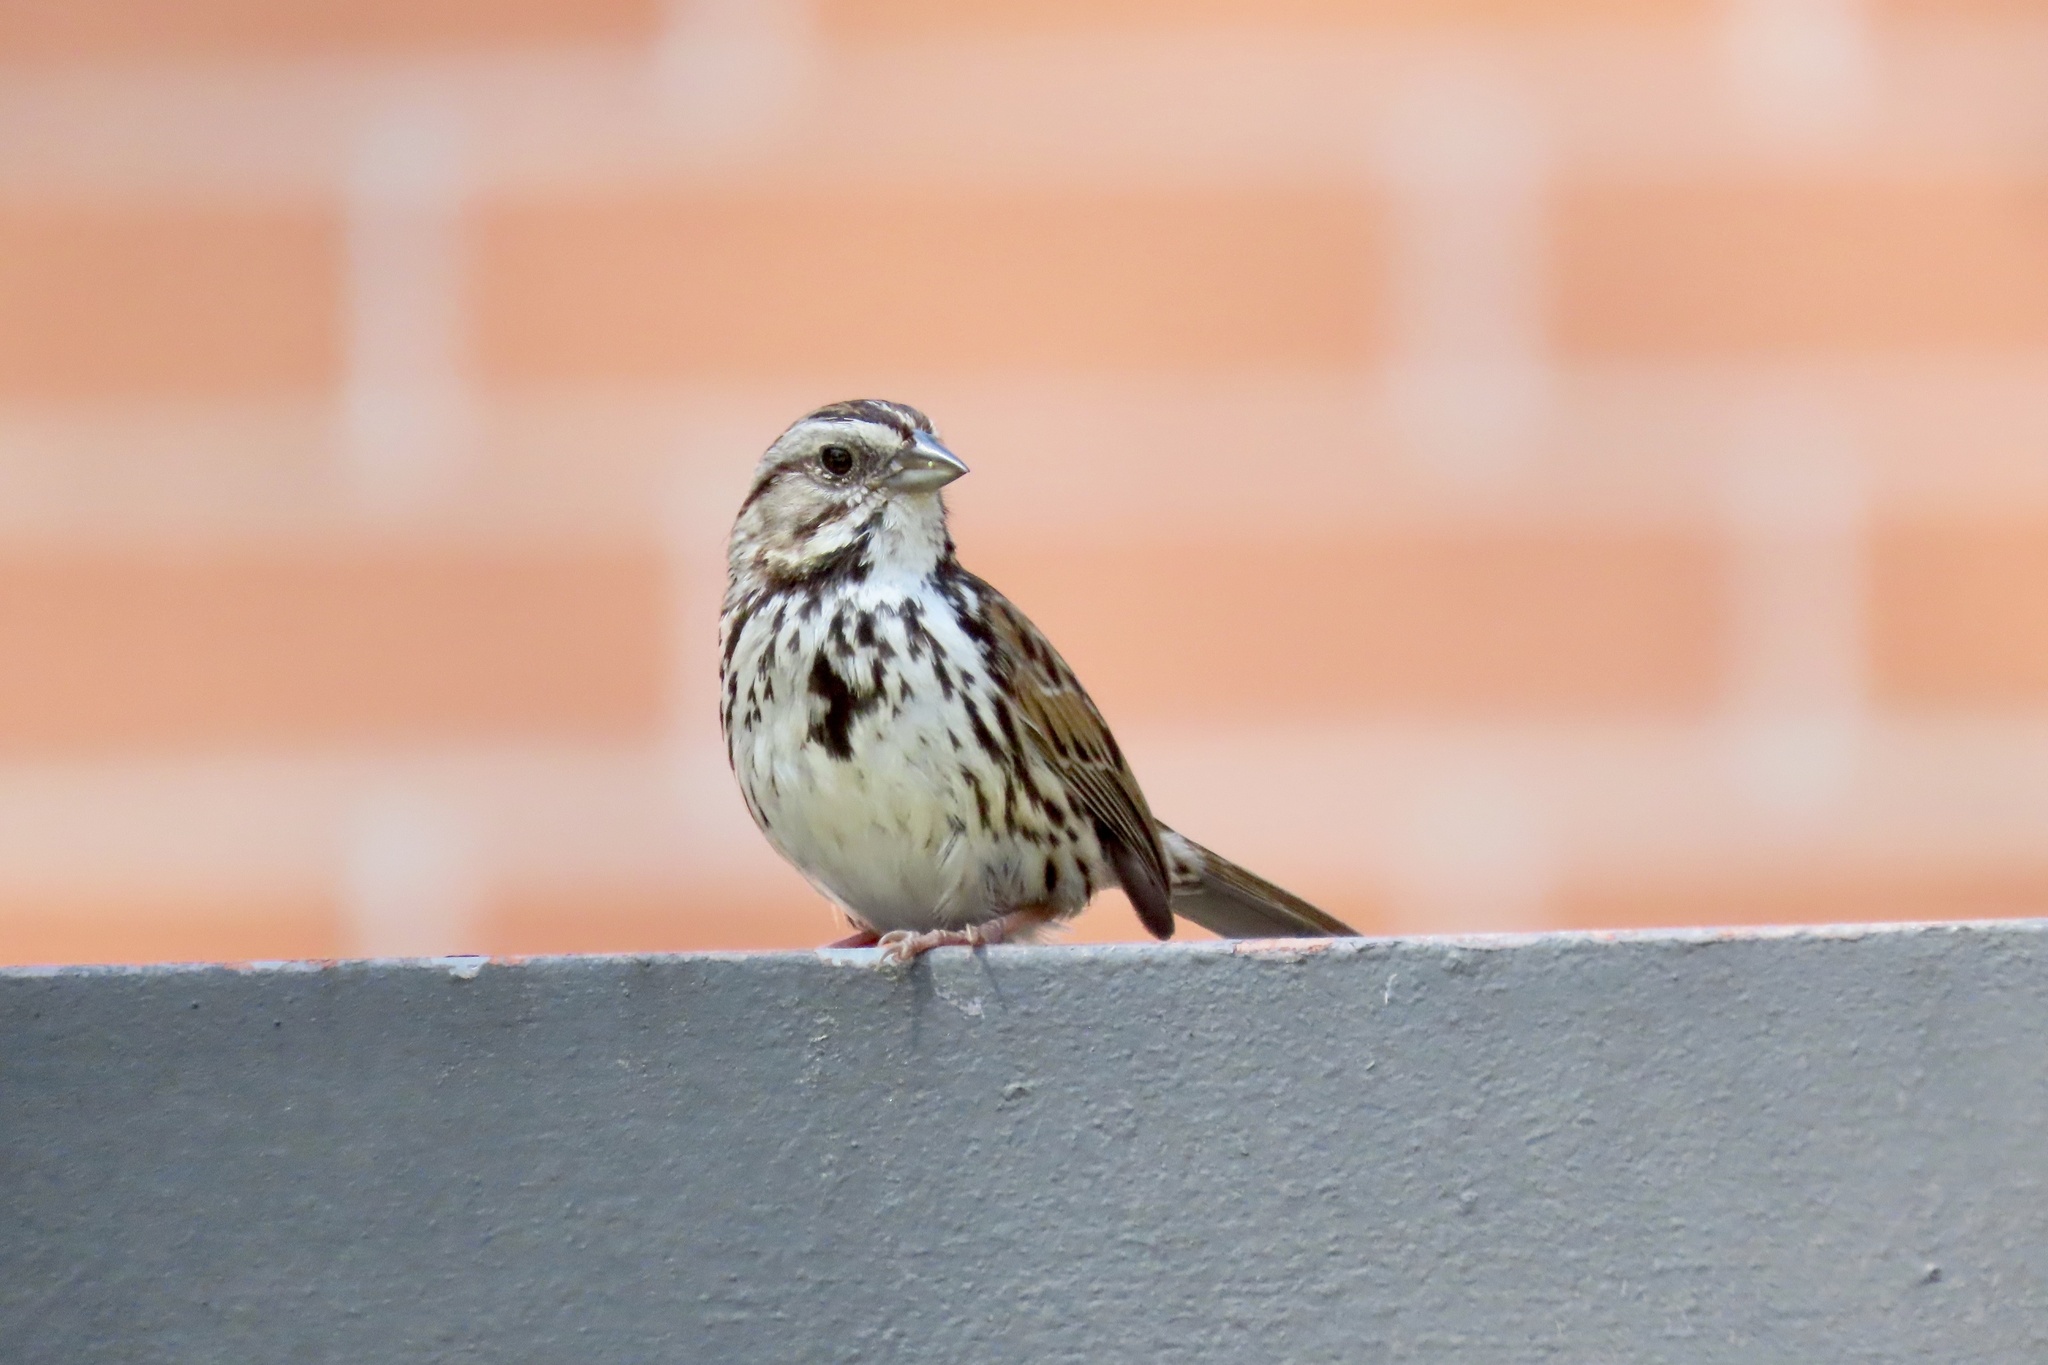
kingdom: Animalia
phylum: Chordata
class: Aves
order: Passeriformes
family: Passerellidae
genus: Melospiza
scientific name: Melospiza melodia
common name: Song sparrow
